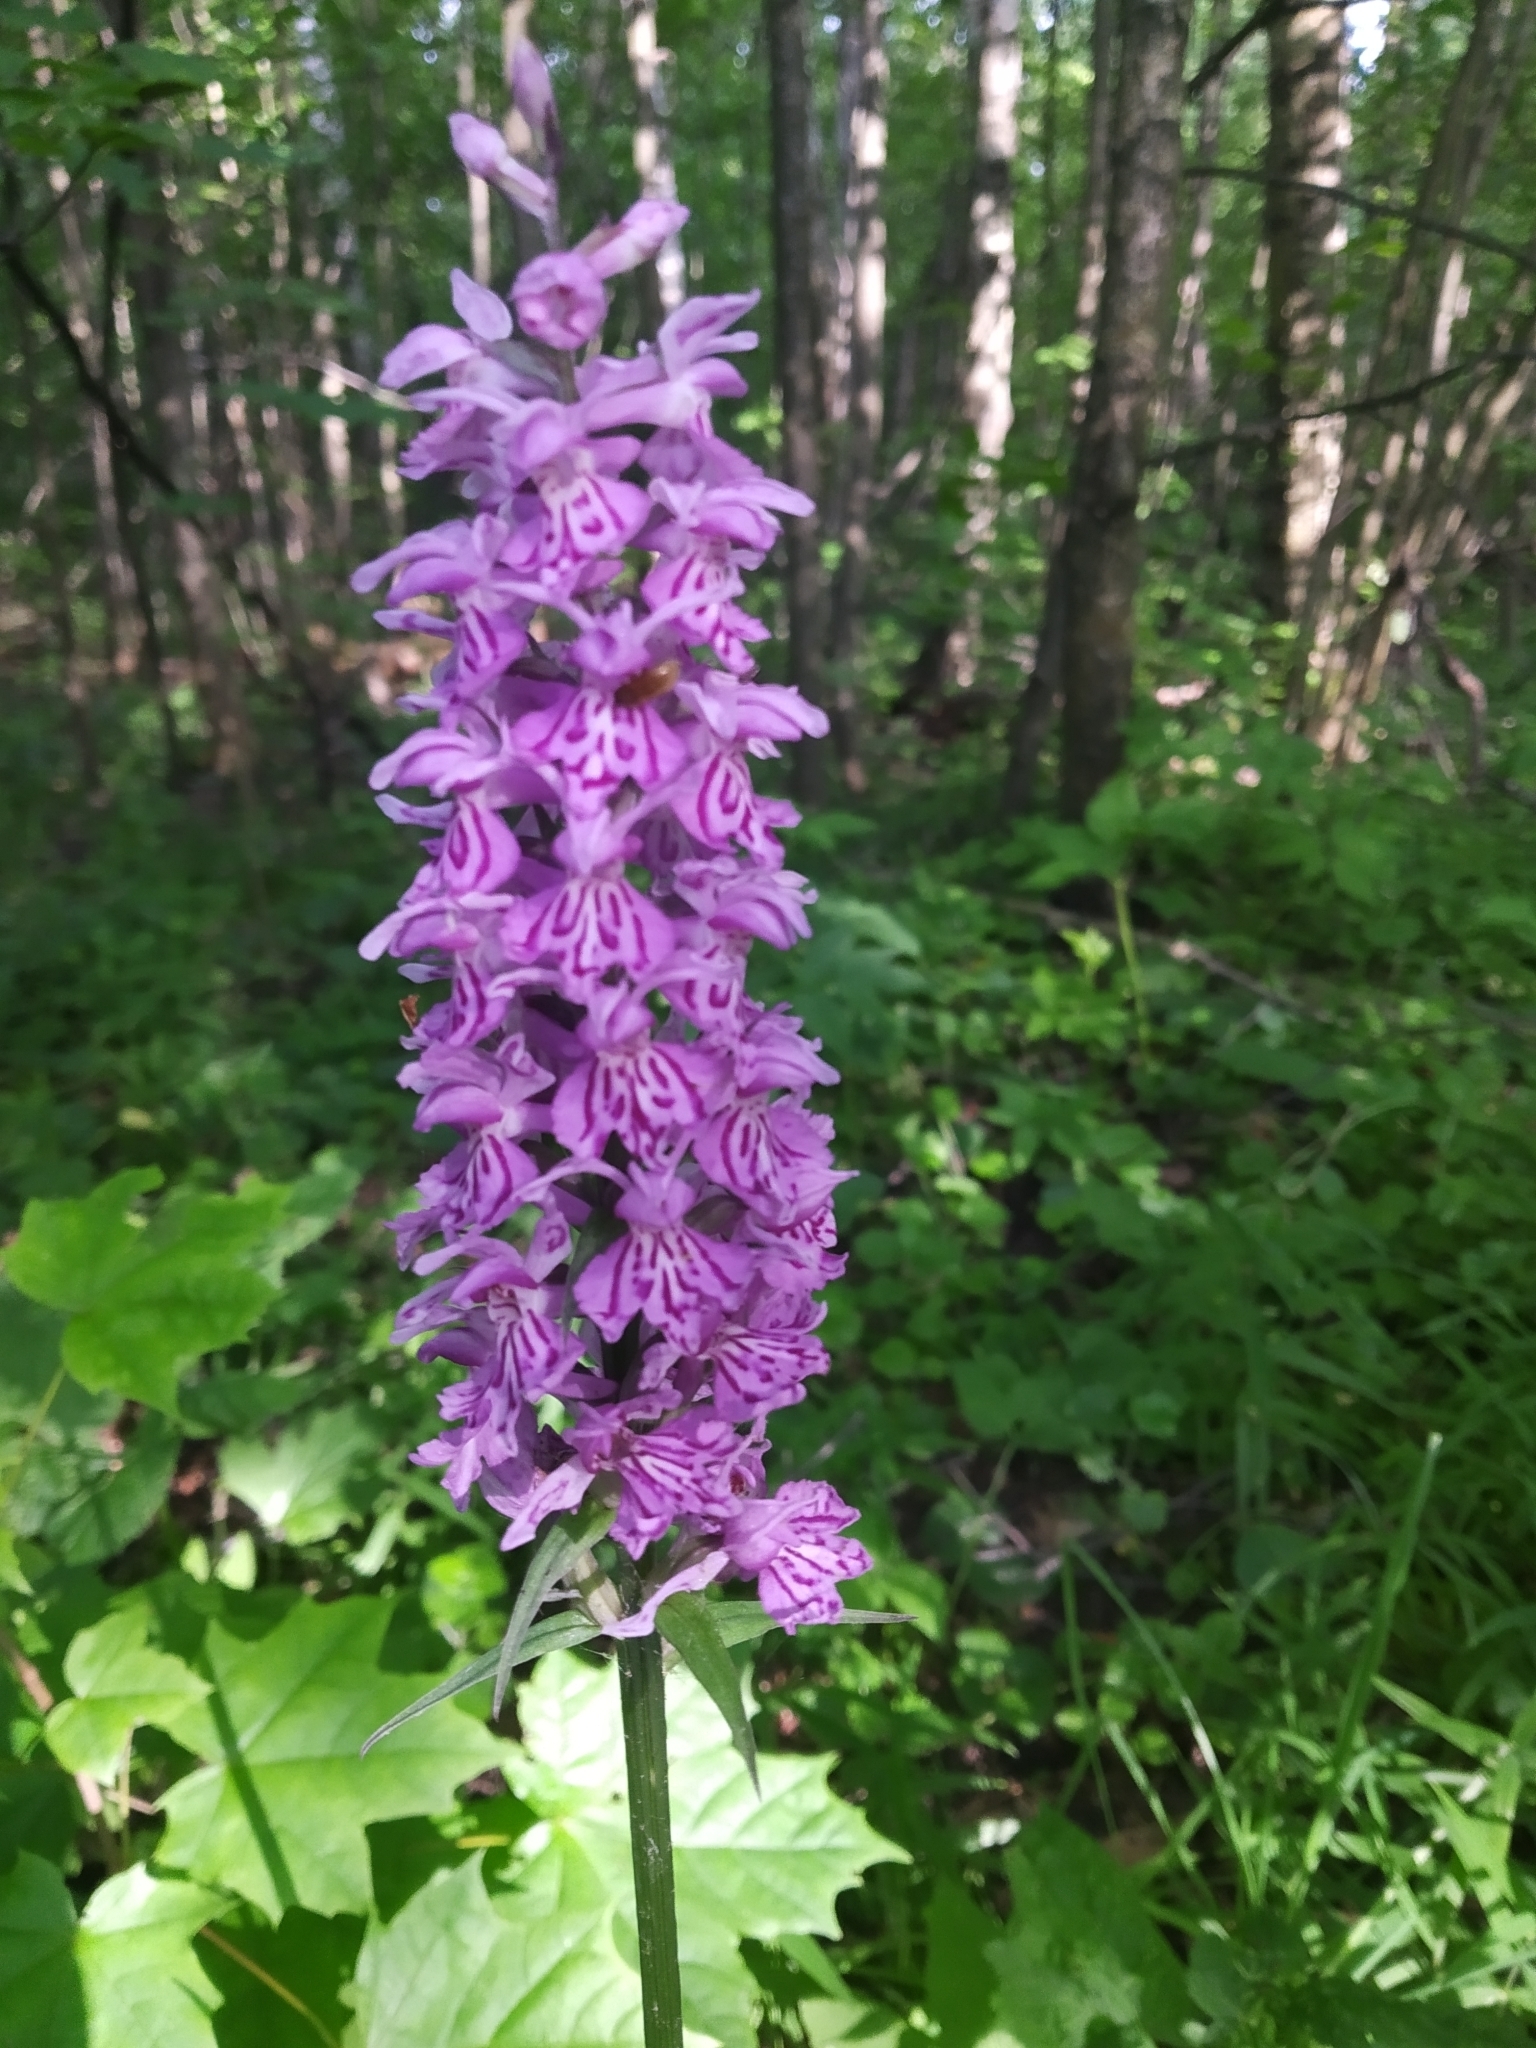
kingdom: Plantae
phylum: Tracheophyta
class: Liliopsida
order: Asparagales
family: Orchidaceae
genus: Dactylorhiza
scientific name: Dactylorhiza maculata
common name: Heath spotted-orchid
